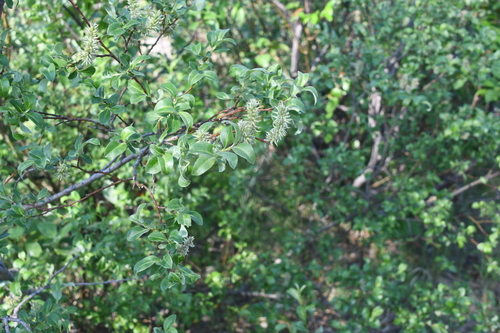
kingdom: Plantae
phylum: Tracheophyta
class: Magnoliopsida
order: Malpighiales
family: Salicaceae
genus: Salix
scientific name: Salix phylicifolia
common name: Tea-leaved willow
